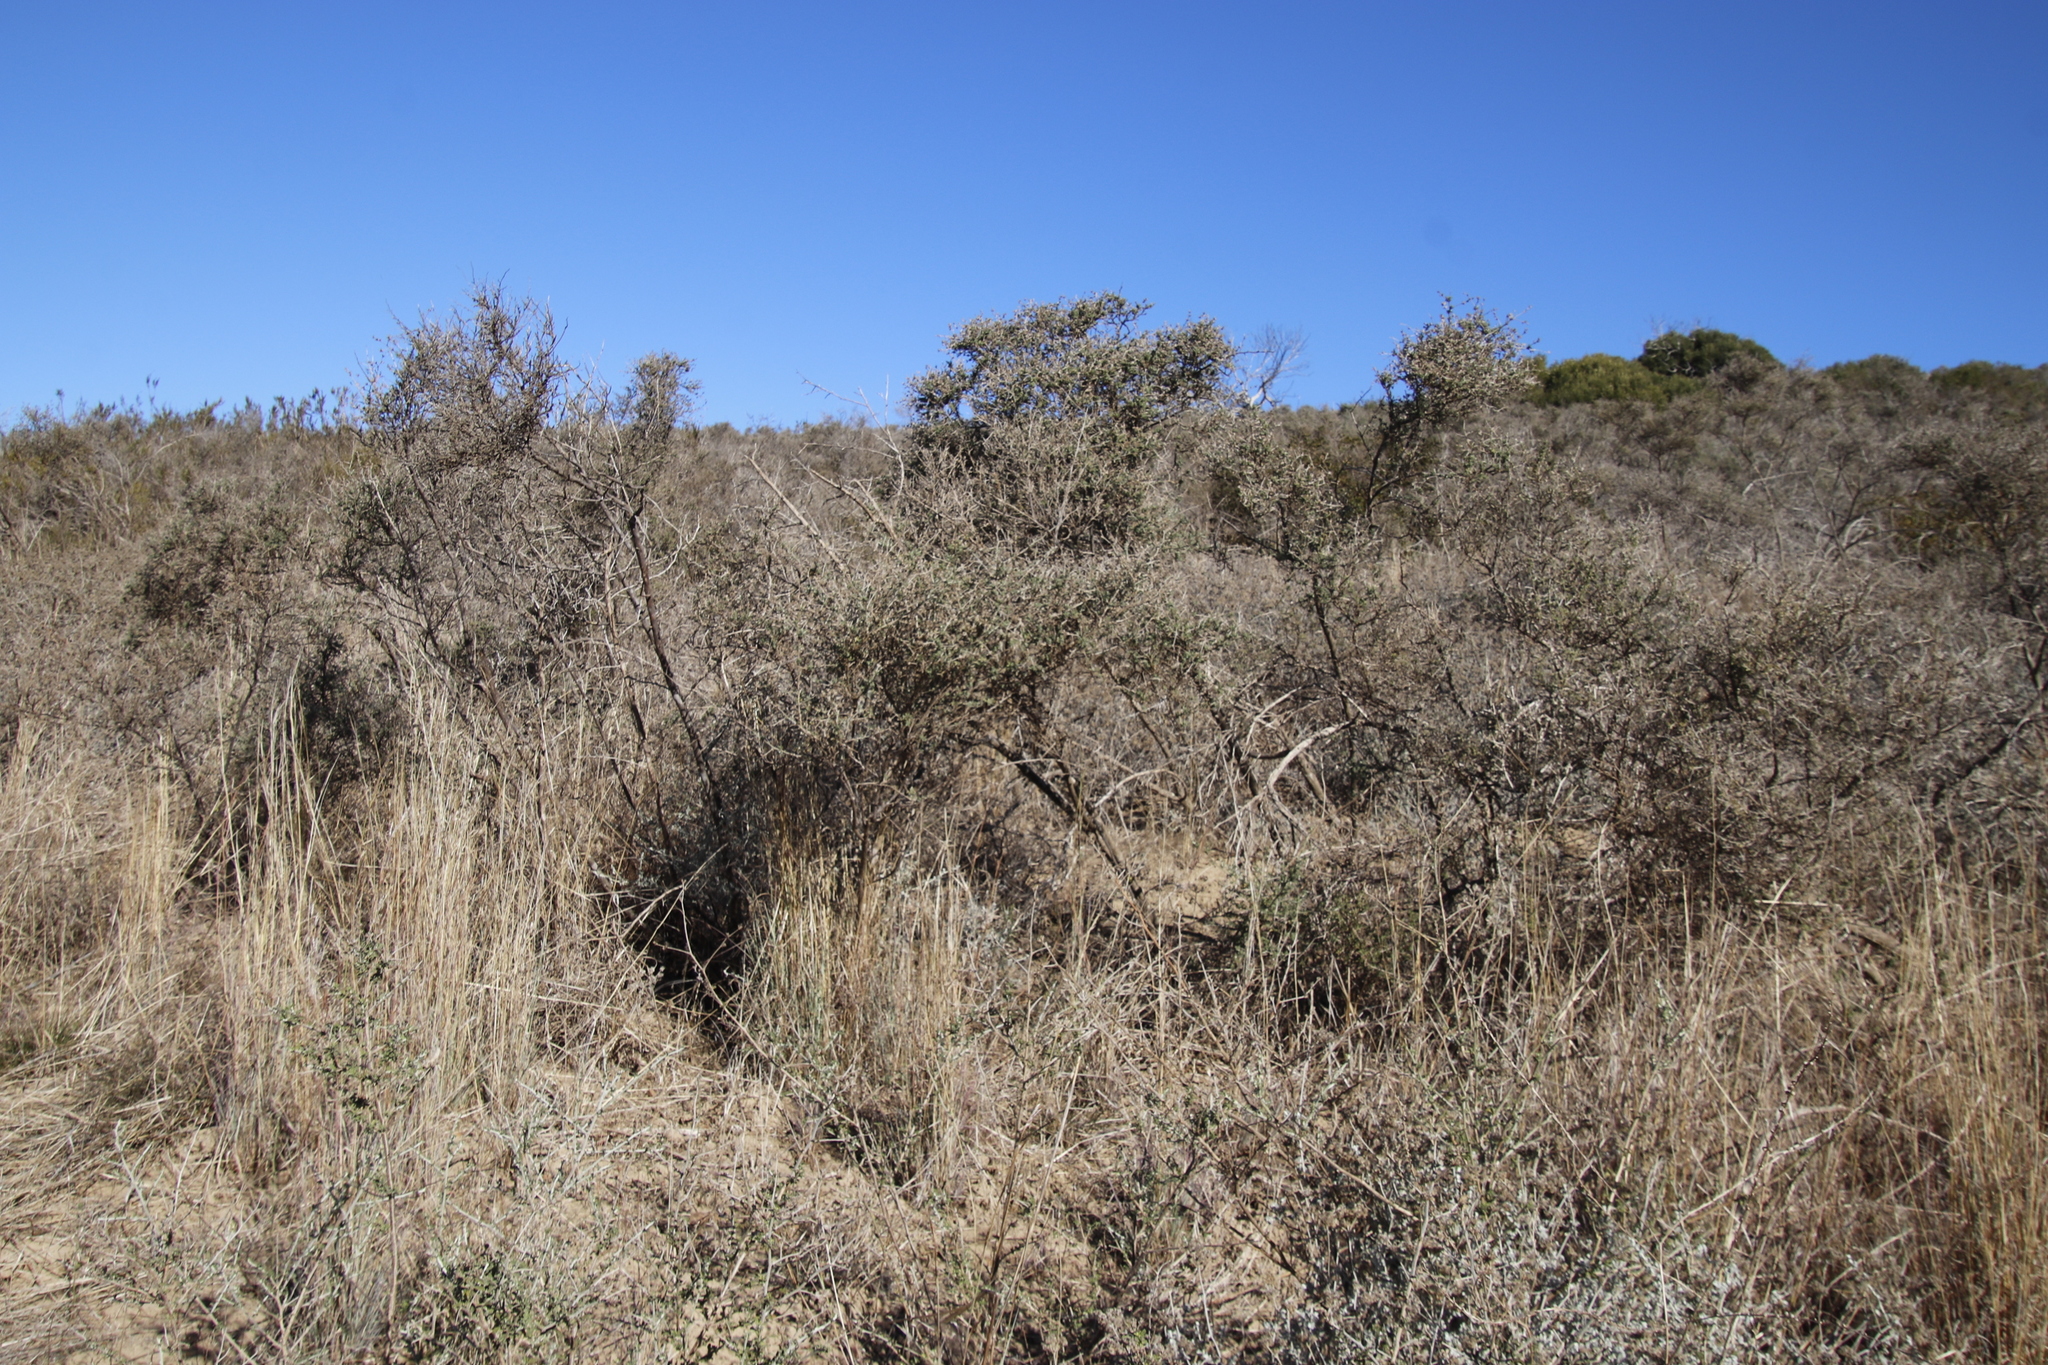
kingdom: Plantae
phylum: Tracheophyta
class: Magnoliopsida
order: Fabales
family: Fabaceae
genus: Psoralea
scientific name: Psoralea hirta
